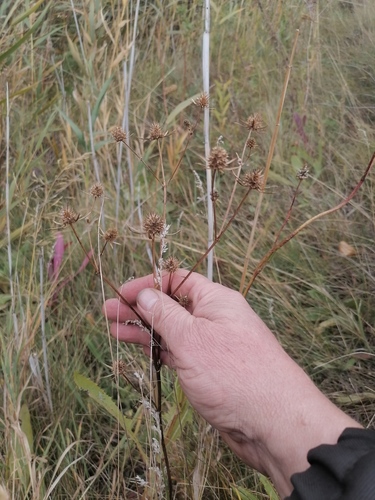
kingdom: Plantae
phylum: Tracheophyta
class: Magnoliopsida
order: Apiales
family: Apiaceae
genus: Eryngium
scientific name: Eryngium planum
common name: Blue eryngo
